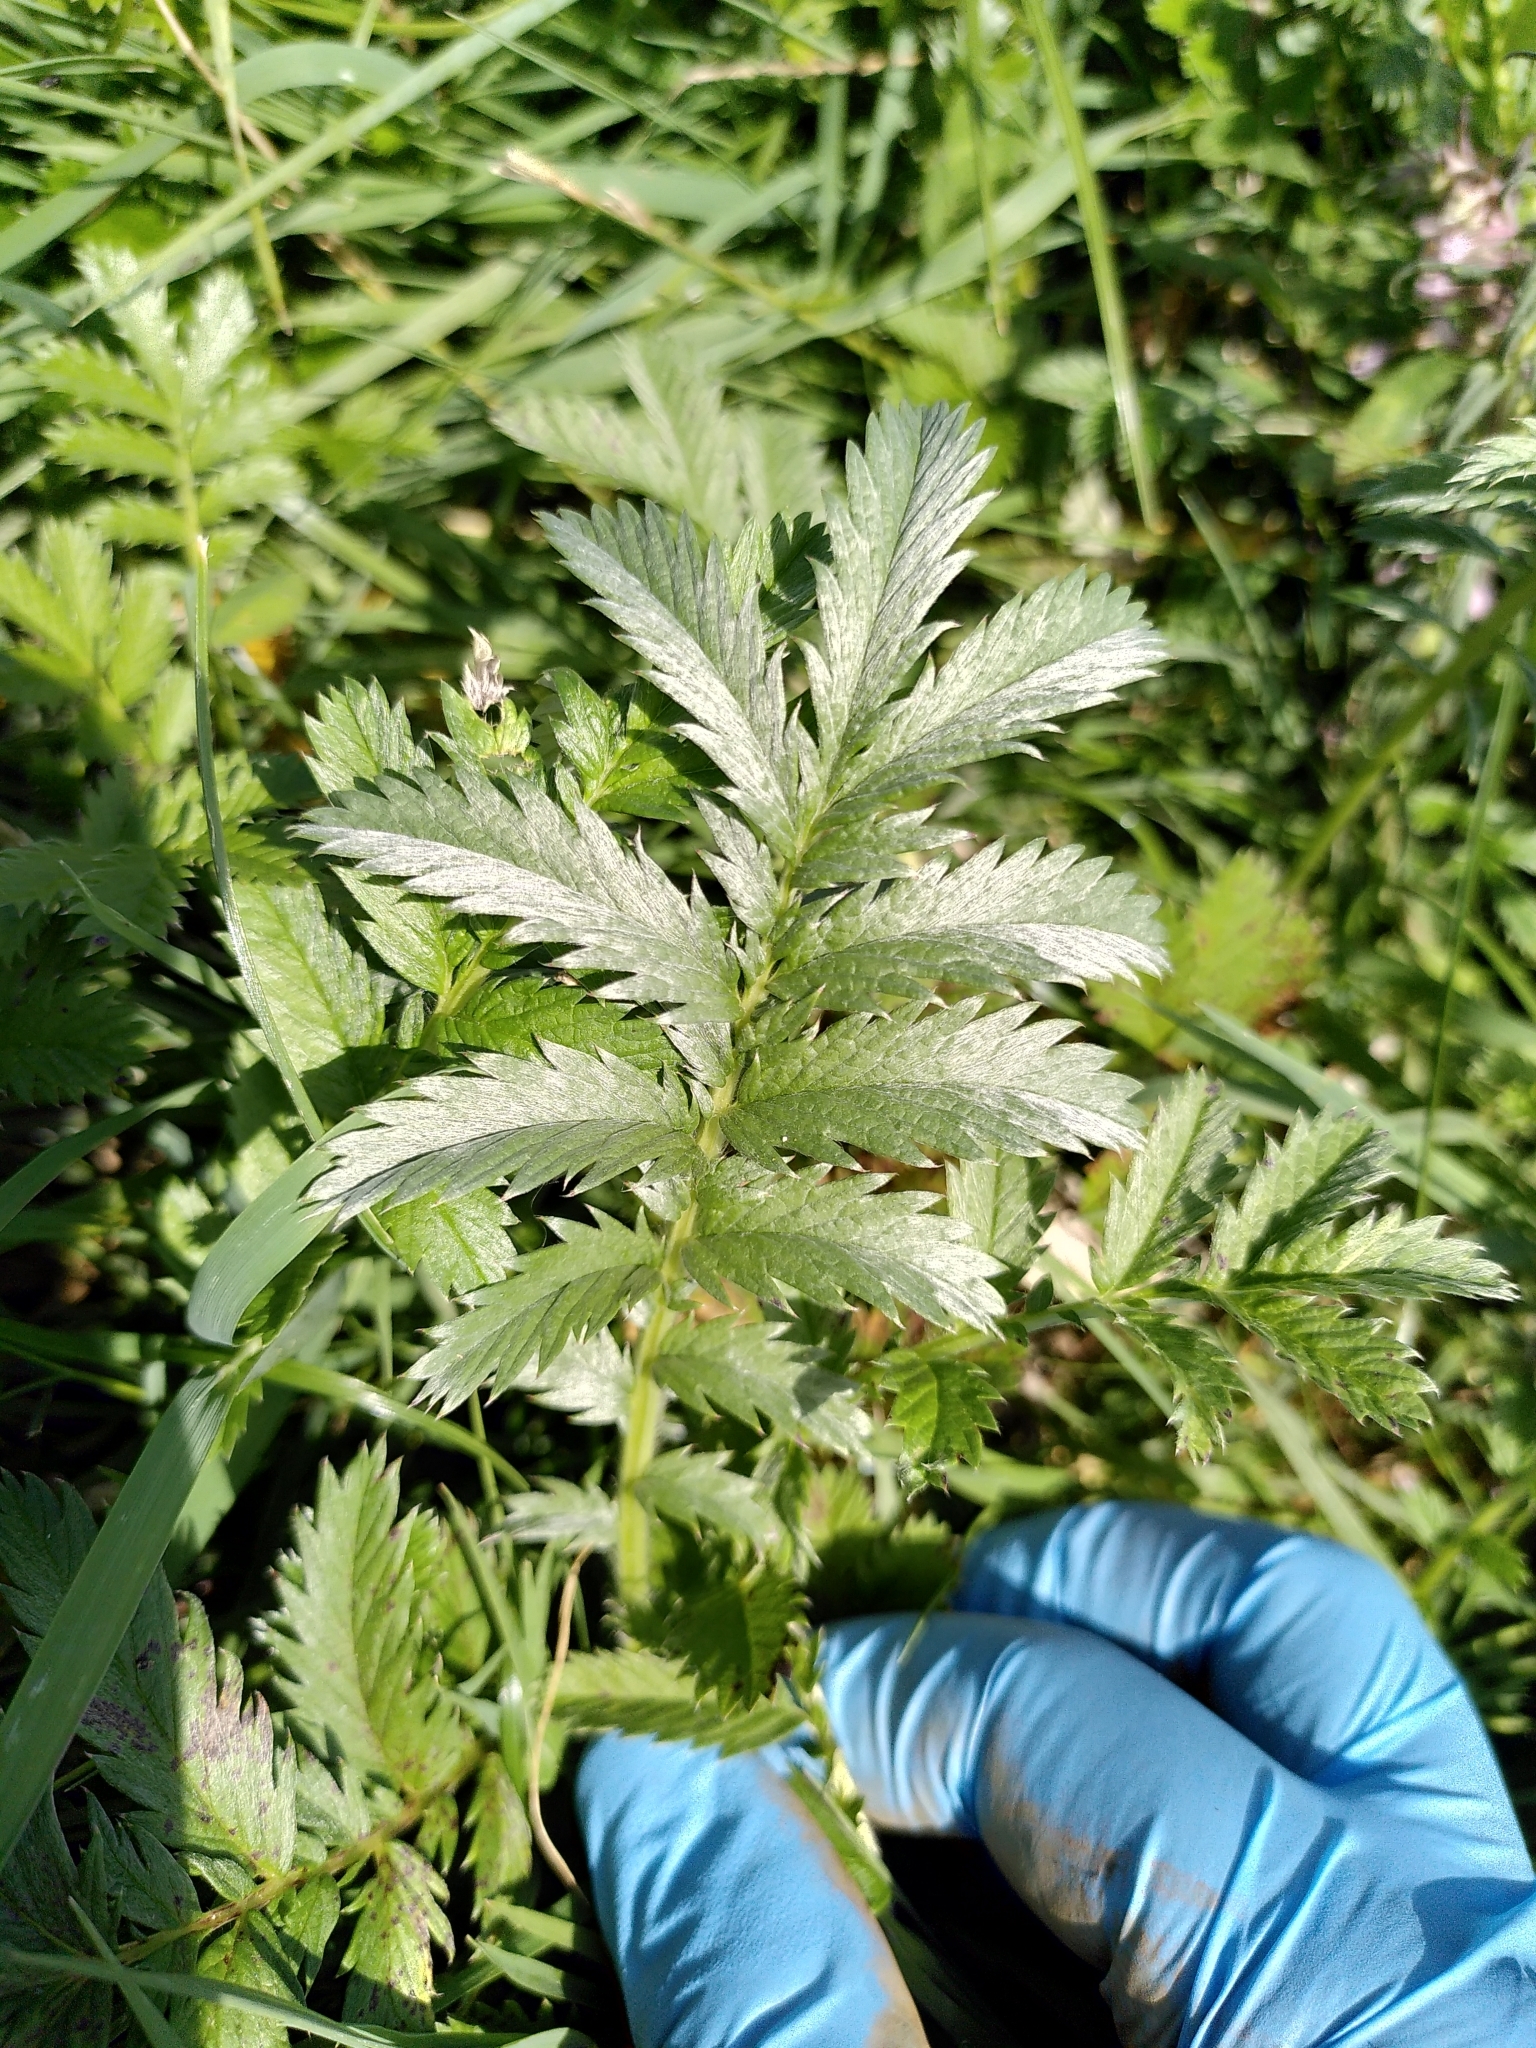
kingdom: Plantae
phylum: Tracheophyta
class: Magnoliopsida
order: Rosales
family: Rosaceae
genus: Argentina
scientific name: Argentina anserina
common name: Common silverweed
